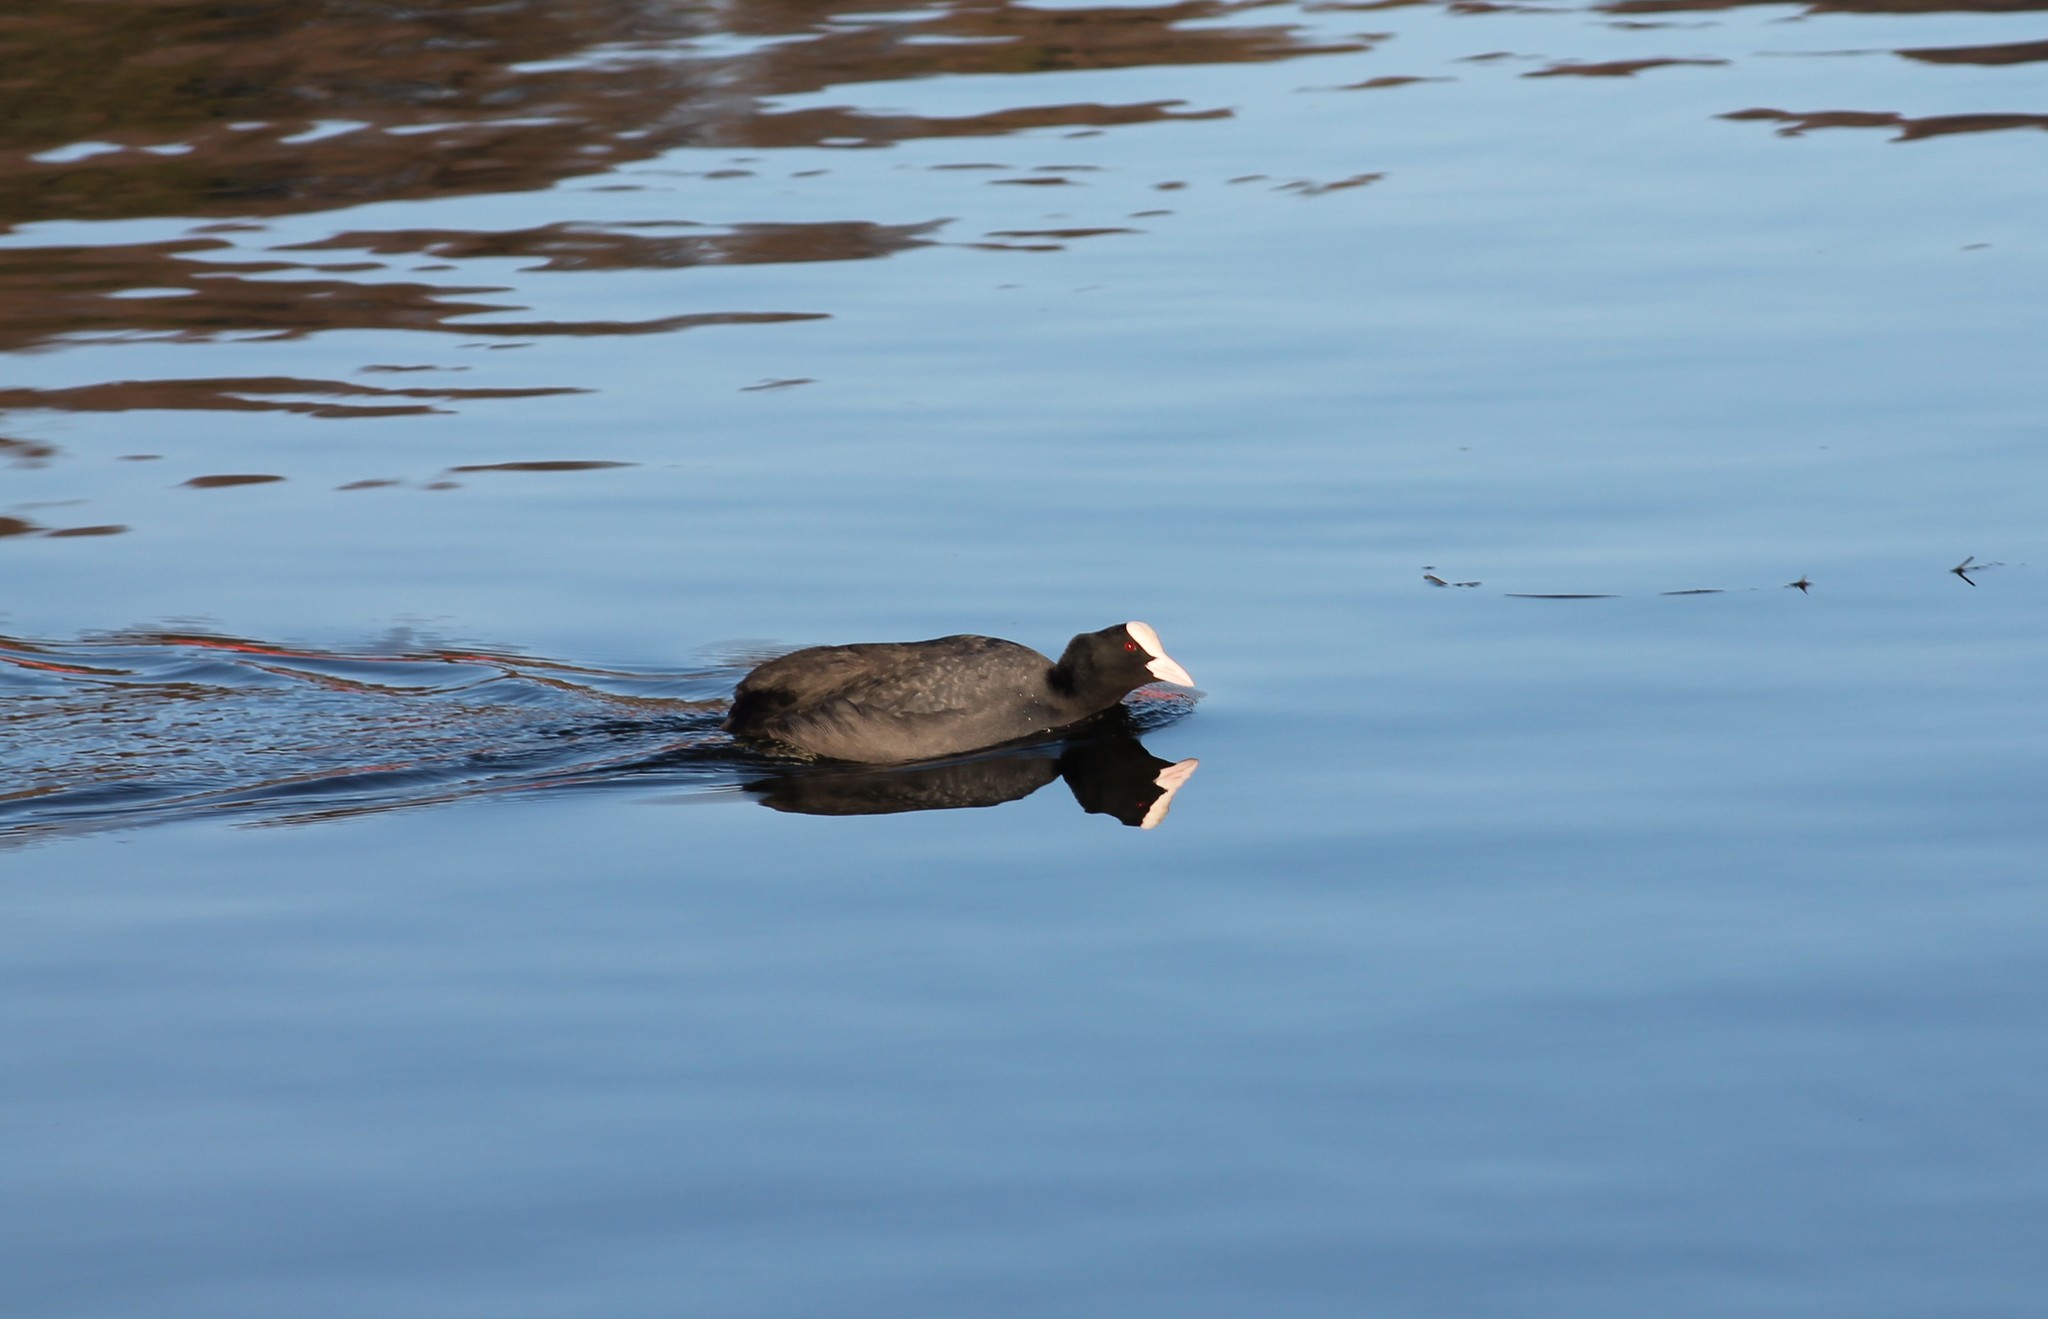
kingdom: Animalia
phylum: Chordata
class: Aves
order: Gruiformes
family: Rallidae
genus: Fulica
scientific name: Fulica atra
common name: Eurasian coot
